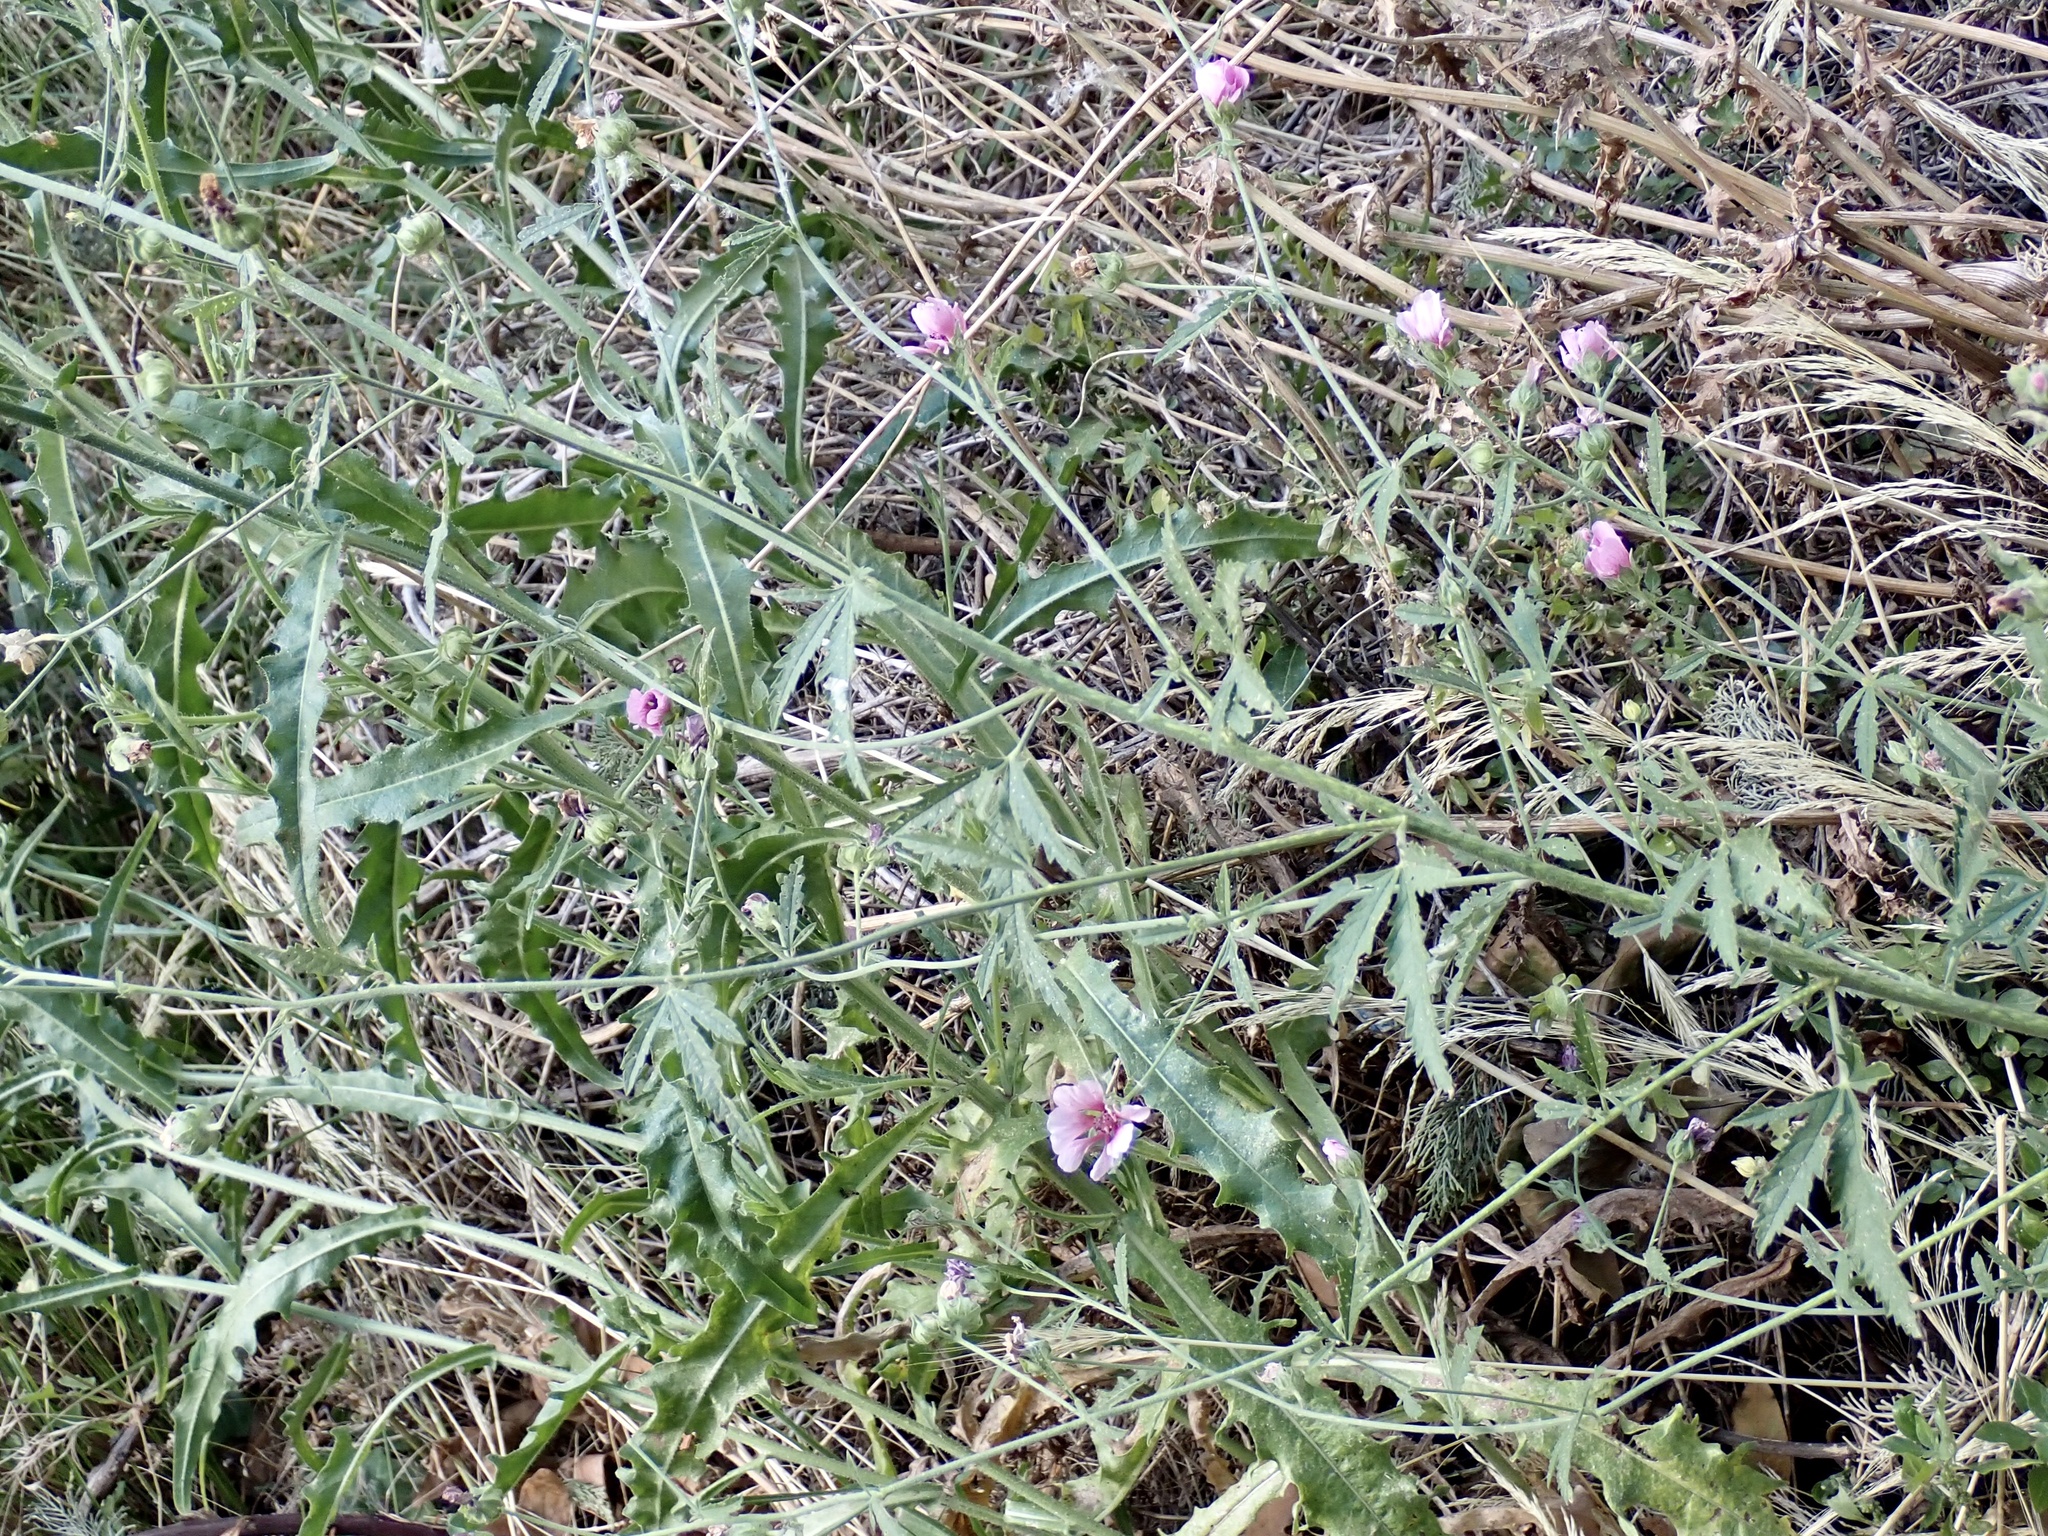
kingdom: Plantae
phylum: Tracheophyta
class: Magnoliopsida
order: Malvales
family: Malvaceae
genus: Althaea
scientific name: Althaea cannabina
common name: Palm-leaf marshmallow
